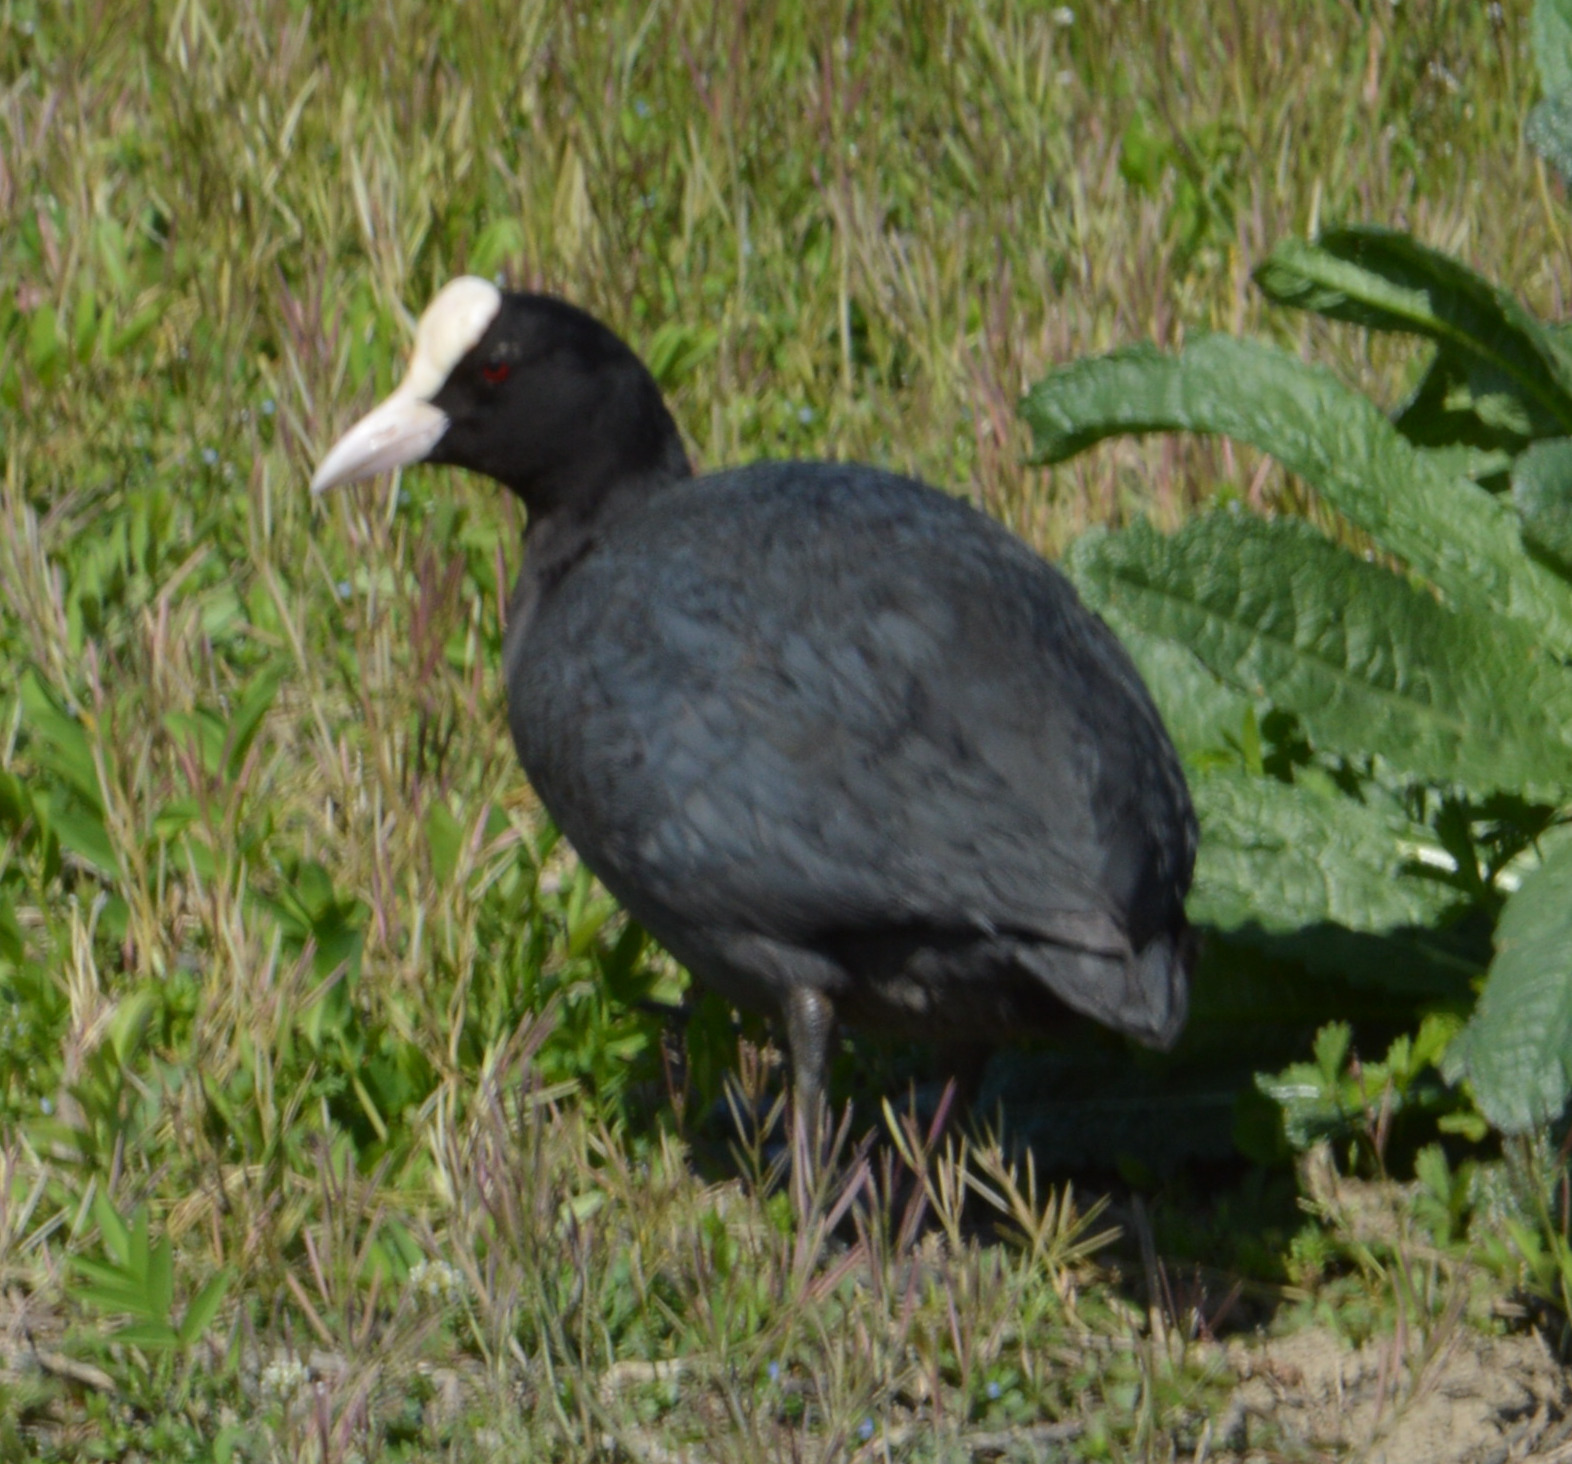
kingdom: Animalia
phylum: Chordata
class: Aves
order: Gruiformes
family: Rallidae
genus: Fulica
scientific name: Fulica atra
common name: Eurasian coot
